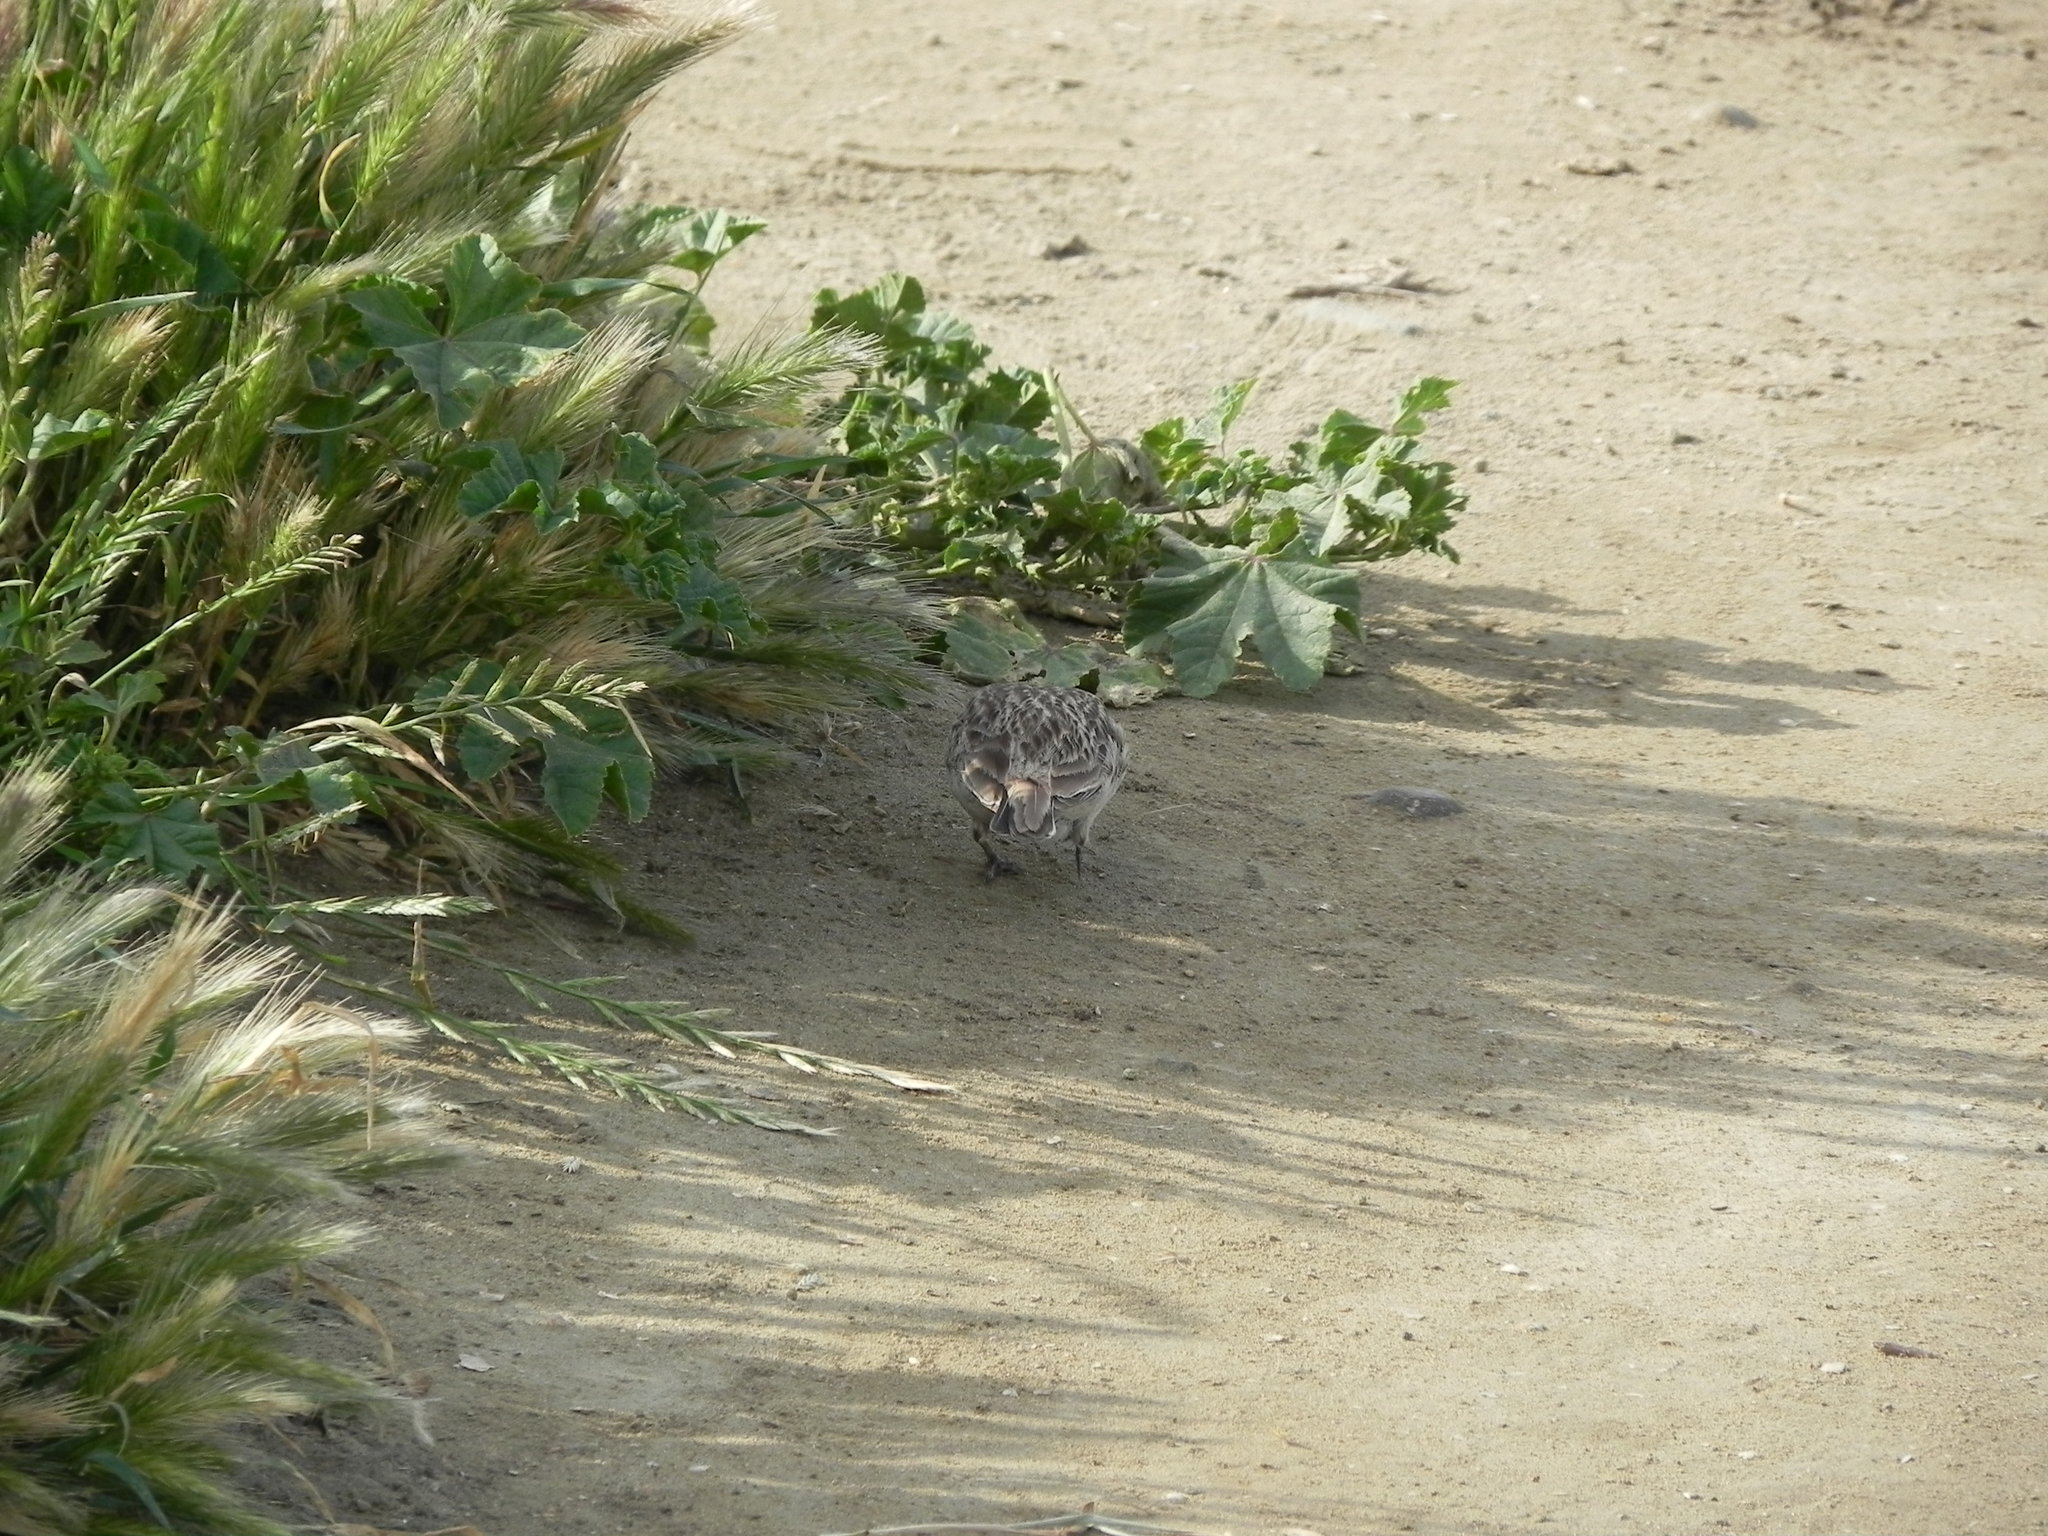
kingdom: Animalia
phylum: Chordata
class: Aves
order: Passeriformes
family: Alaudidae
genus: Eremophila
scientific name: Eremophila alpestris
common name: Horned lark
